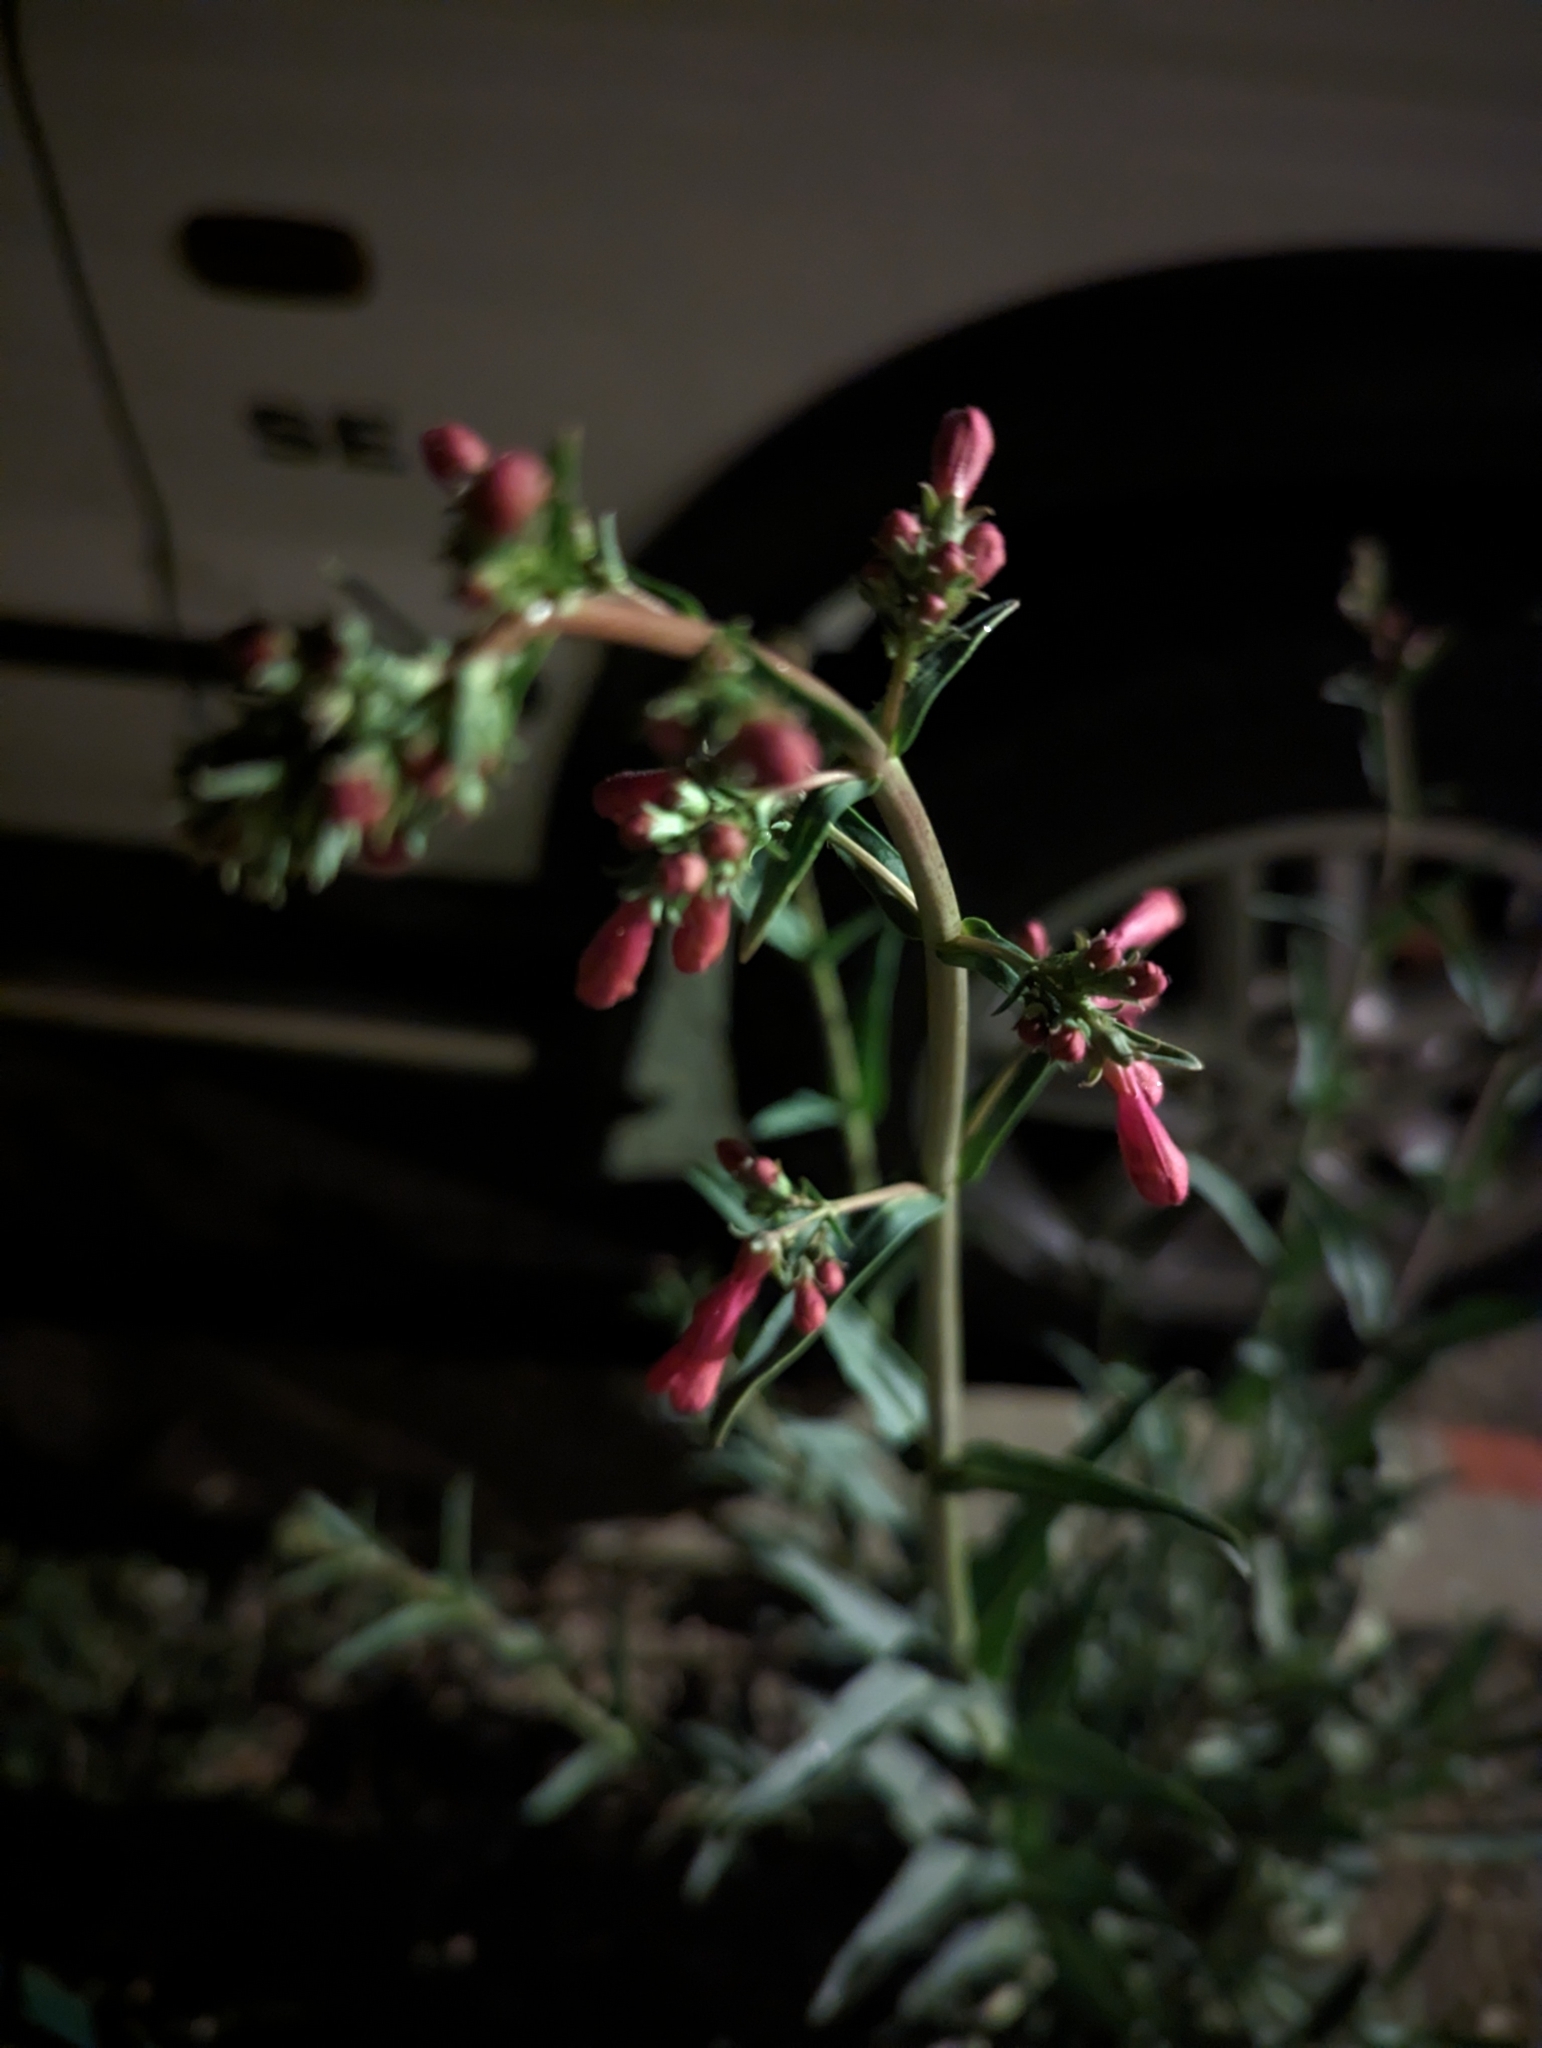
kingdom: Plantae
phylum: Tracheophyta
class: Magnoliopsida
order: Lamiales
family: Plantaginaceae
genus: Penstemon
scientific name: Penstemon parryi
